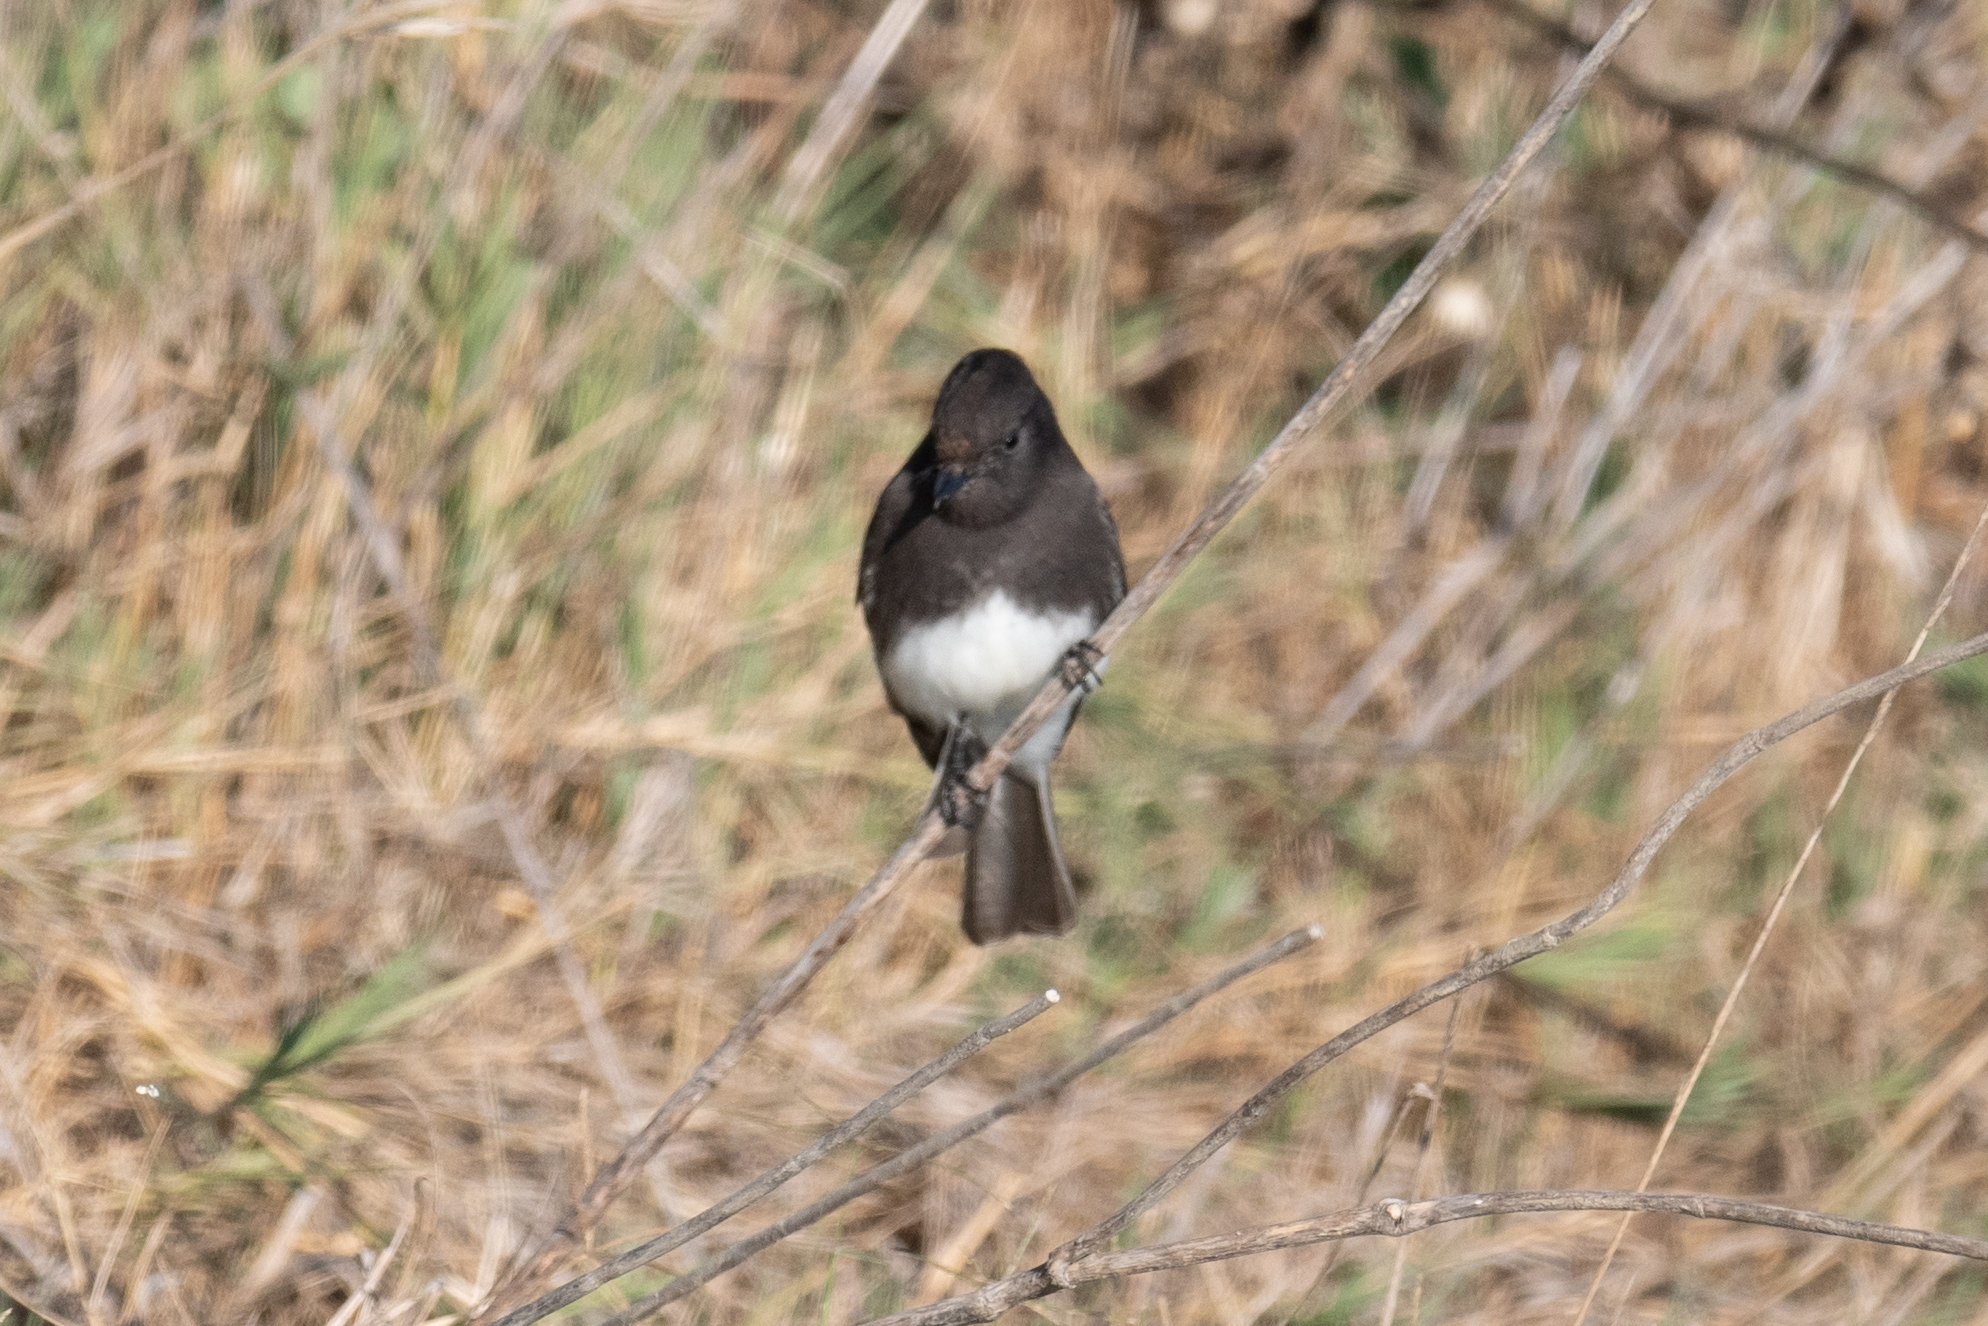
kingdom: Animalia
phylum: Chordata
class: Aves
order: Passeriformes
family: Tyrannidae
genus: Sayornis
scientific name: Sayornis nigricans
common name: Black phoebe
